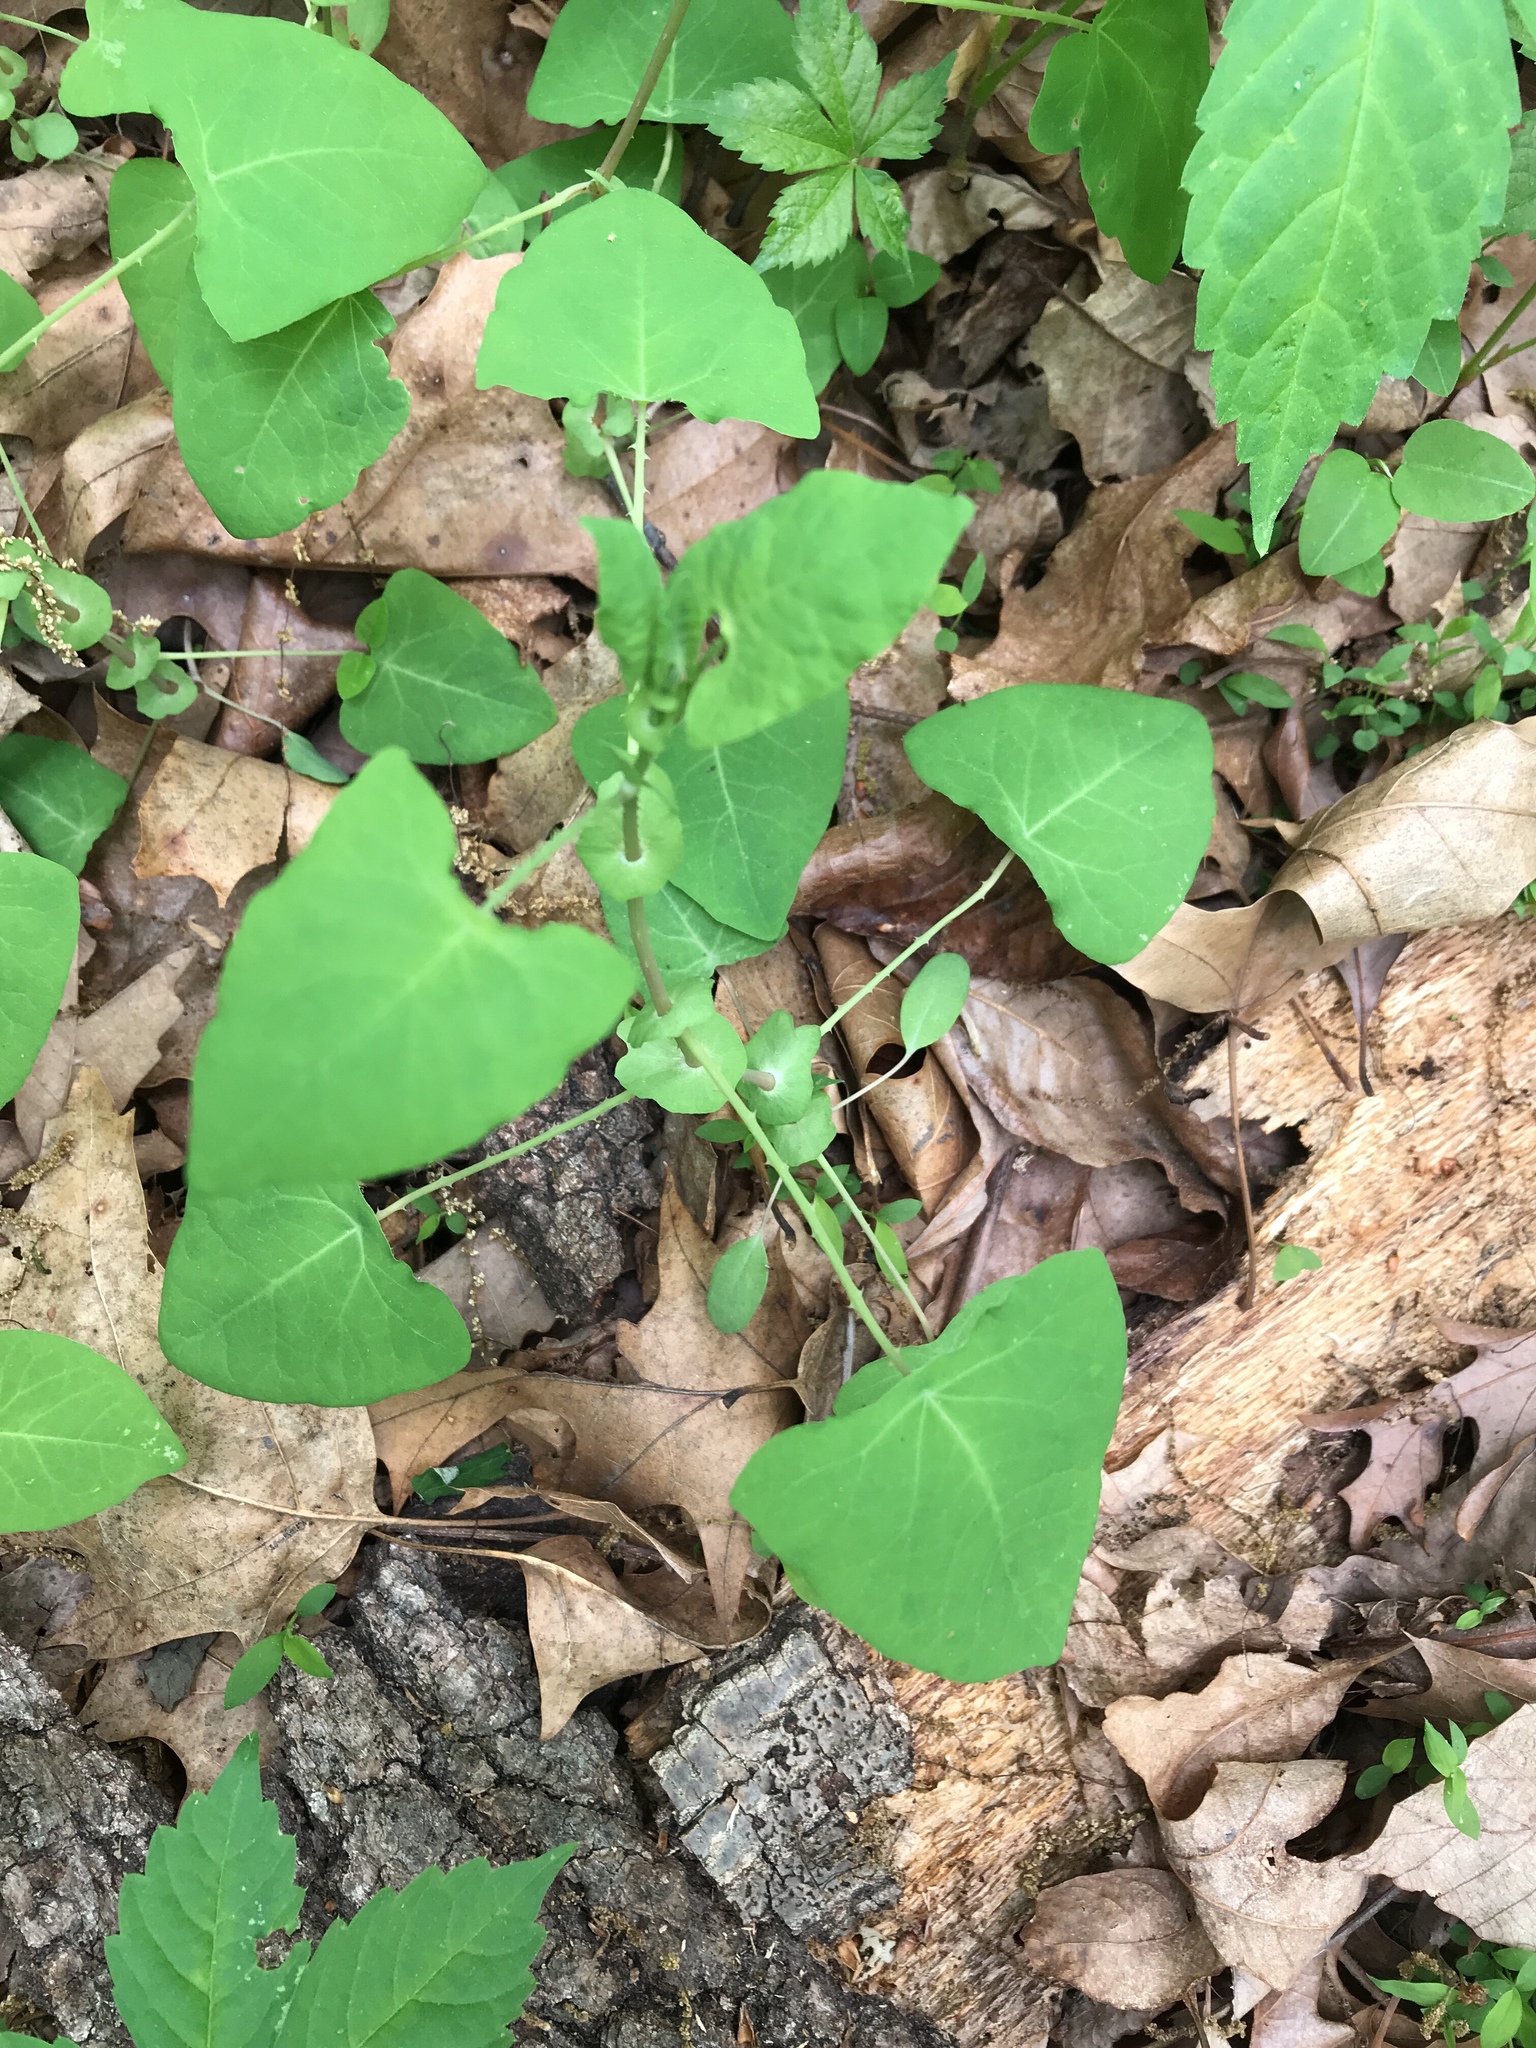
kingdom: Plantae
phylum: Tracheophyta
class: Magnoliopsida
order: Caryophyllales
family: Polygonaceae
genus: Persicaria
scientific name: Persicaria perfoliata
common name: Asiatic tearthumb
